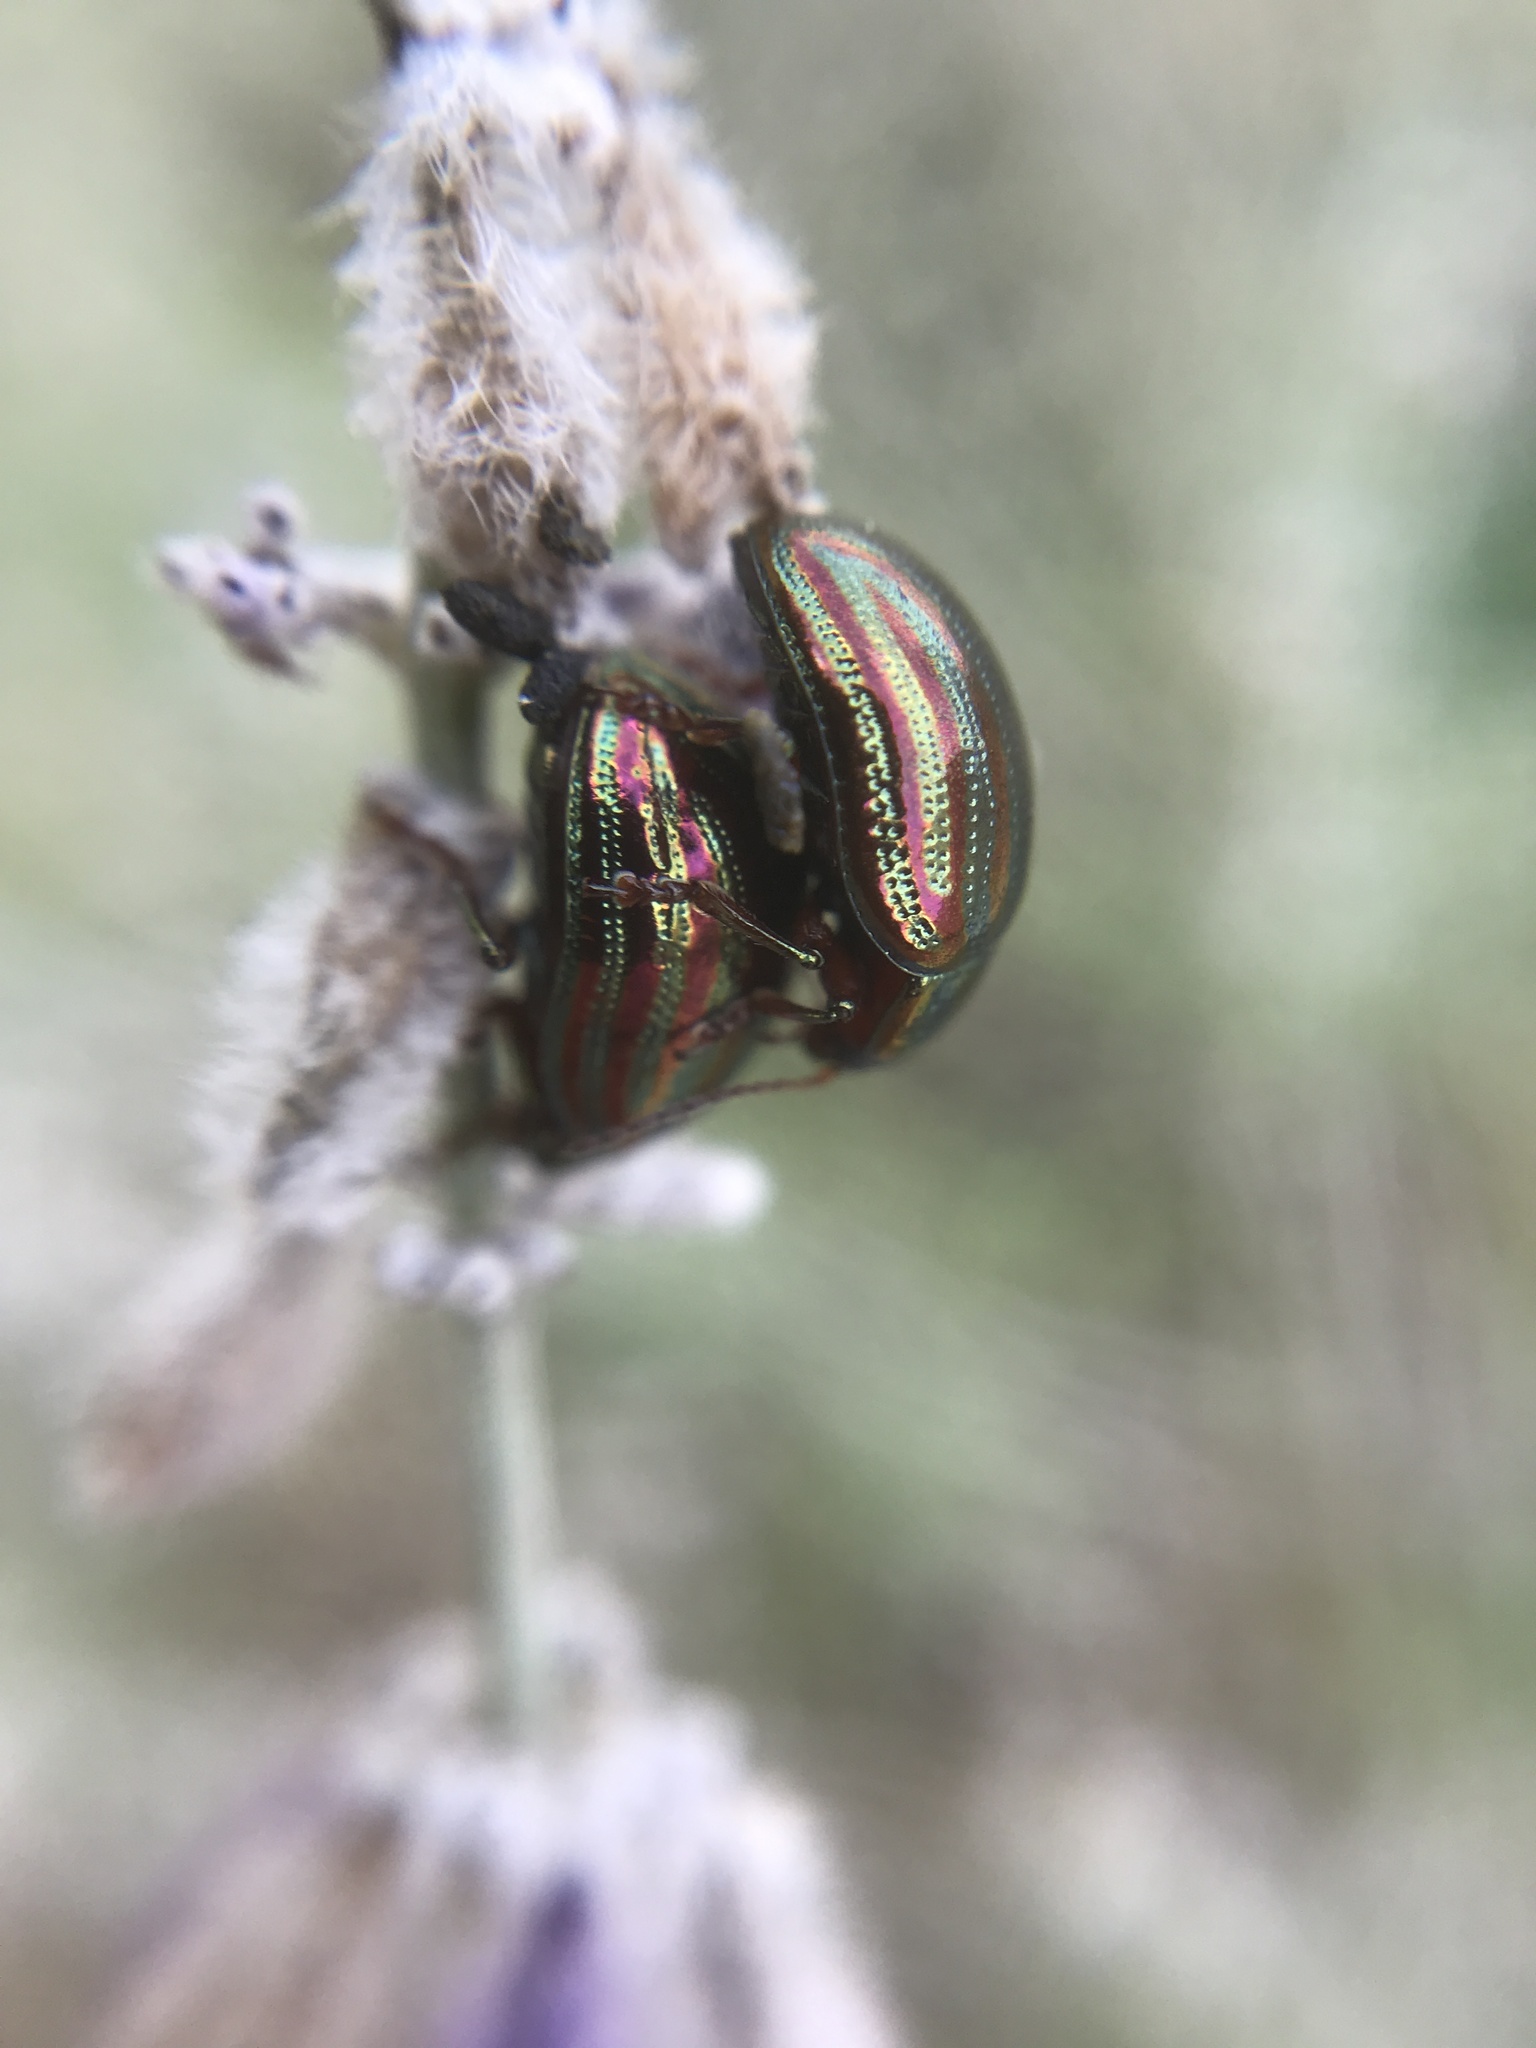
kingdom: Animalia
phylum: Arthropoda
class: Insecta
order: Coleoptera
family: Chrysomelidae
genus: Chrysolina
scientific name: Chrysolina americana
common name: Rosemary beetle
